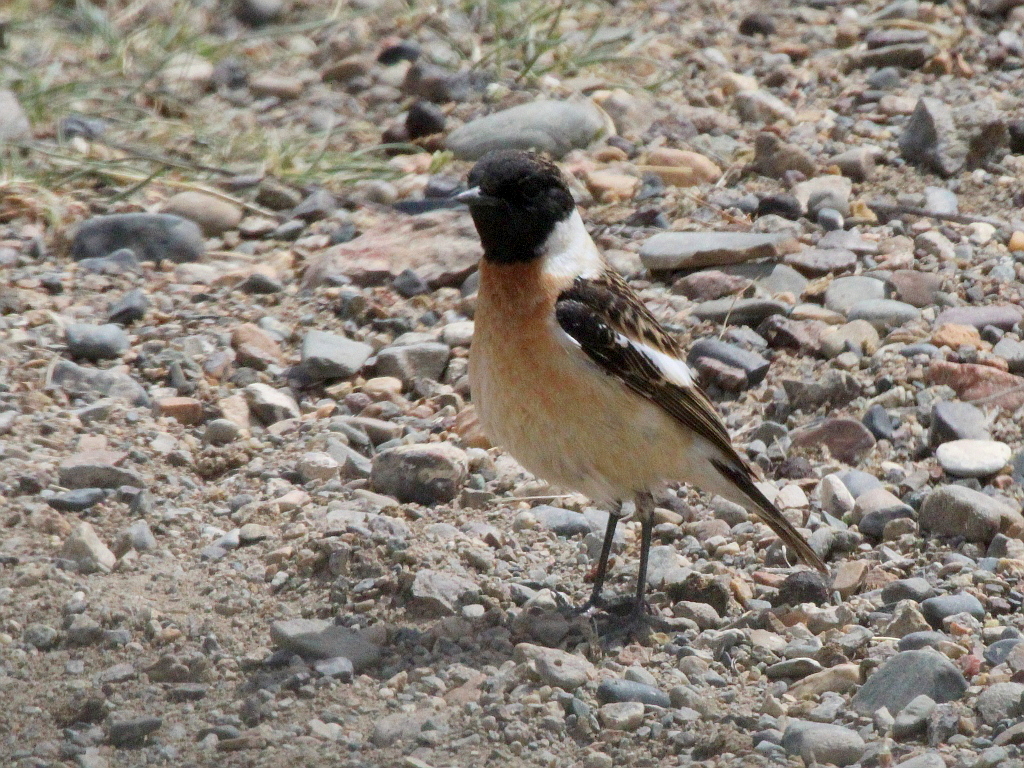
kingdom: Animalia
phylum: Chordata
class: Aves
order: Passeriformes
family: Muscicapidae
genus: Saxicola
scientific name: Saxicola maurus
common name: Siberian stonechat
